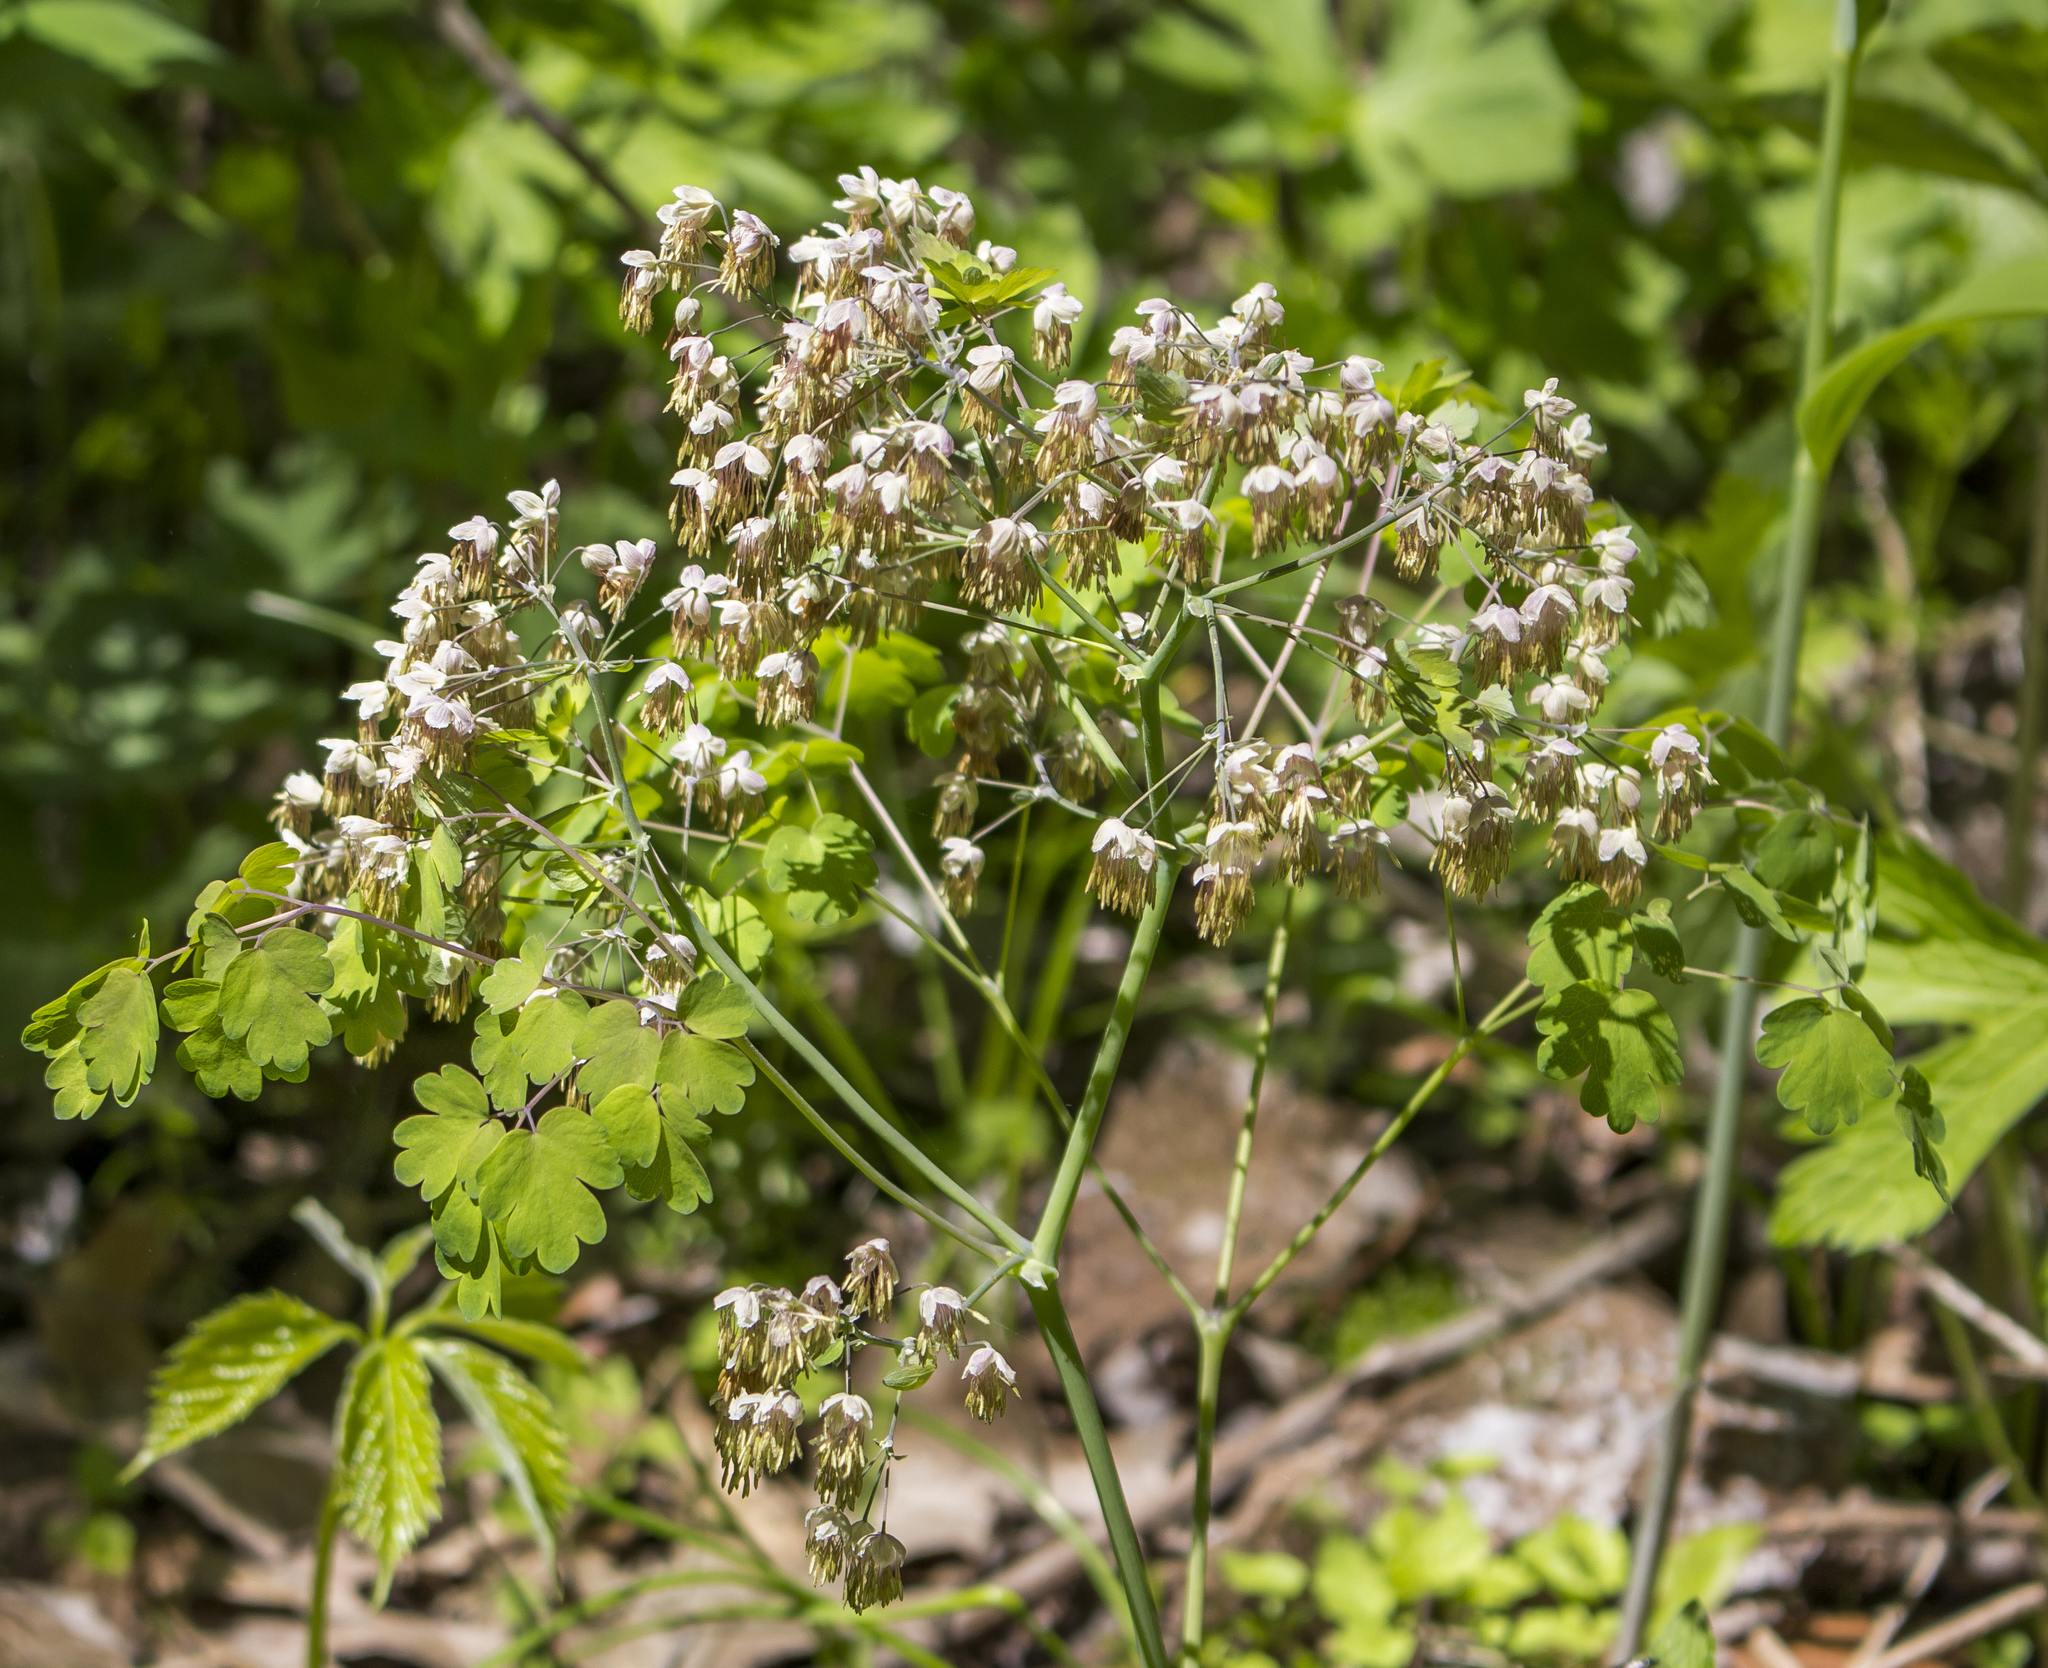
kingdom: Plantae
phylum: Tracheophyta
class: Magnoliopsida
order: Ranunculales
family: Ranunculaceae
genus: Thalictrum
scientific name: Thalictrum dioicum
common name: Early meadow-rue
